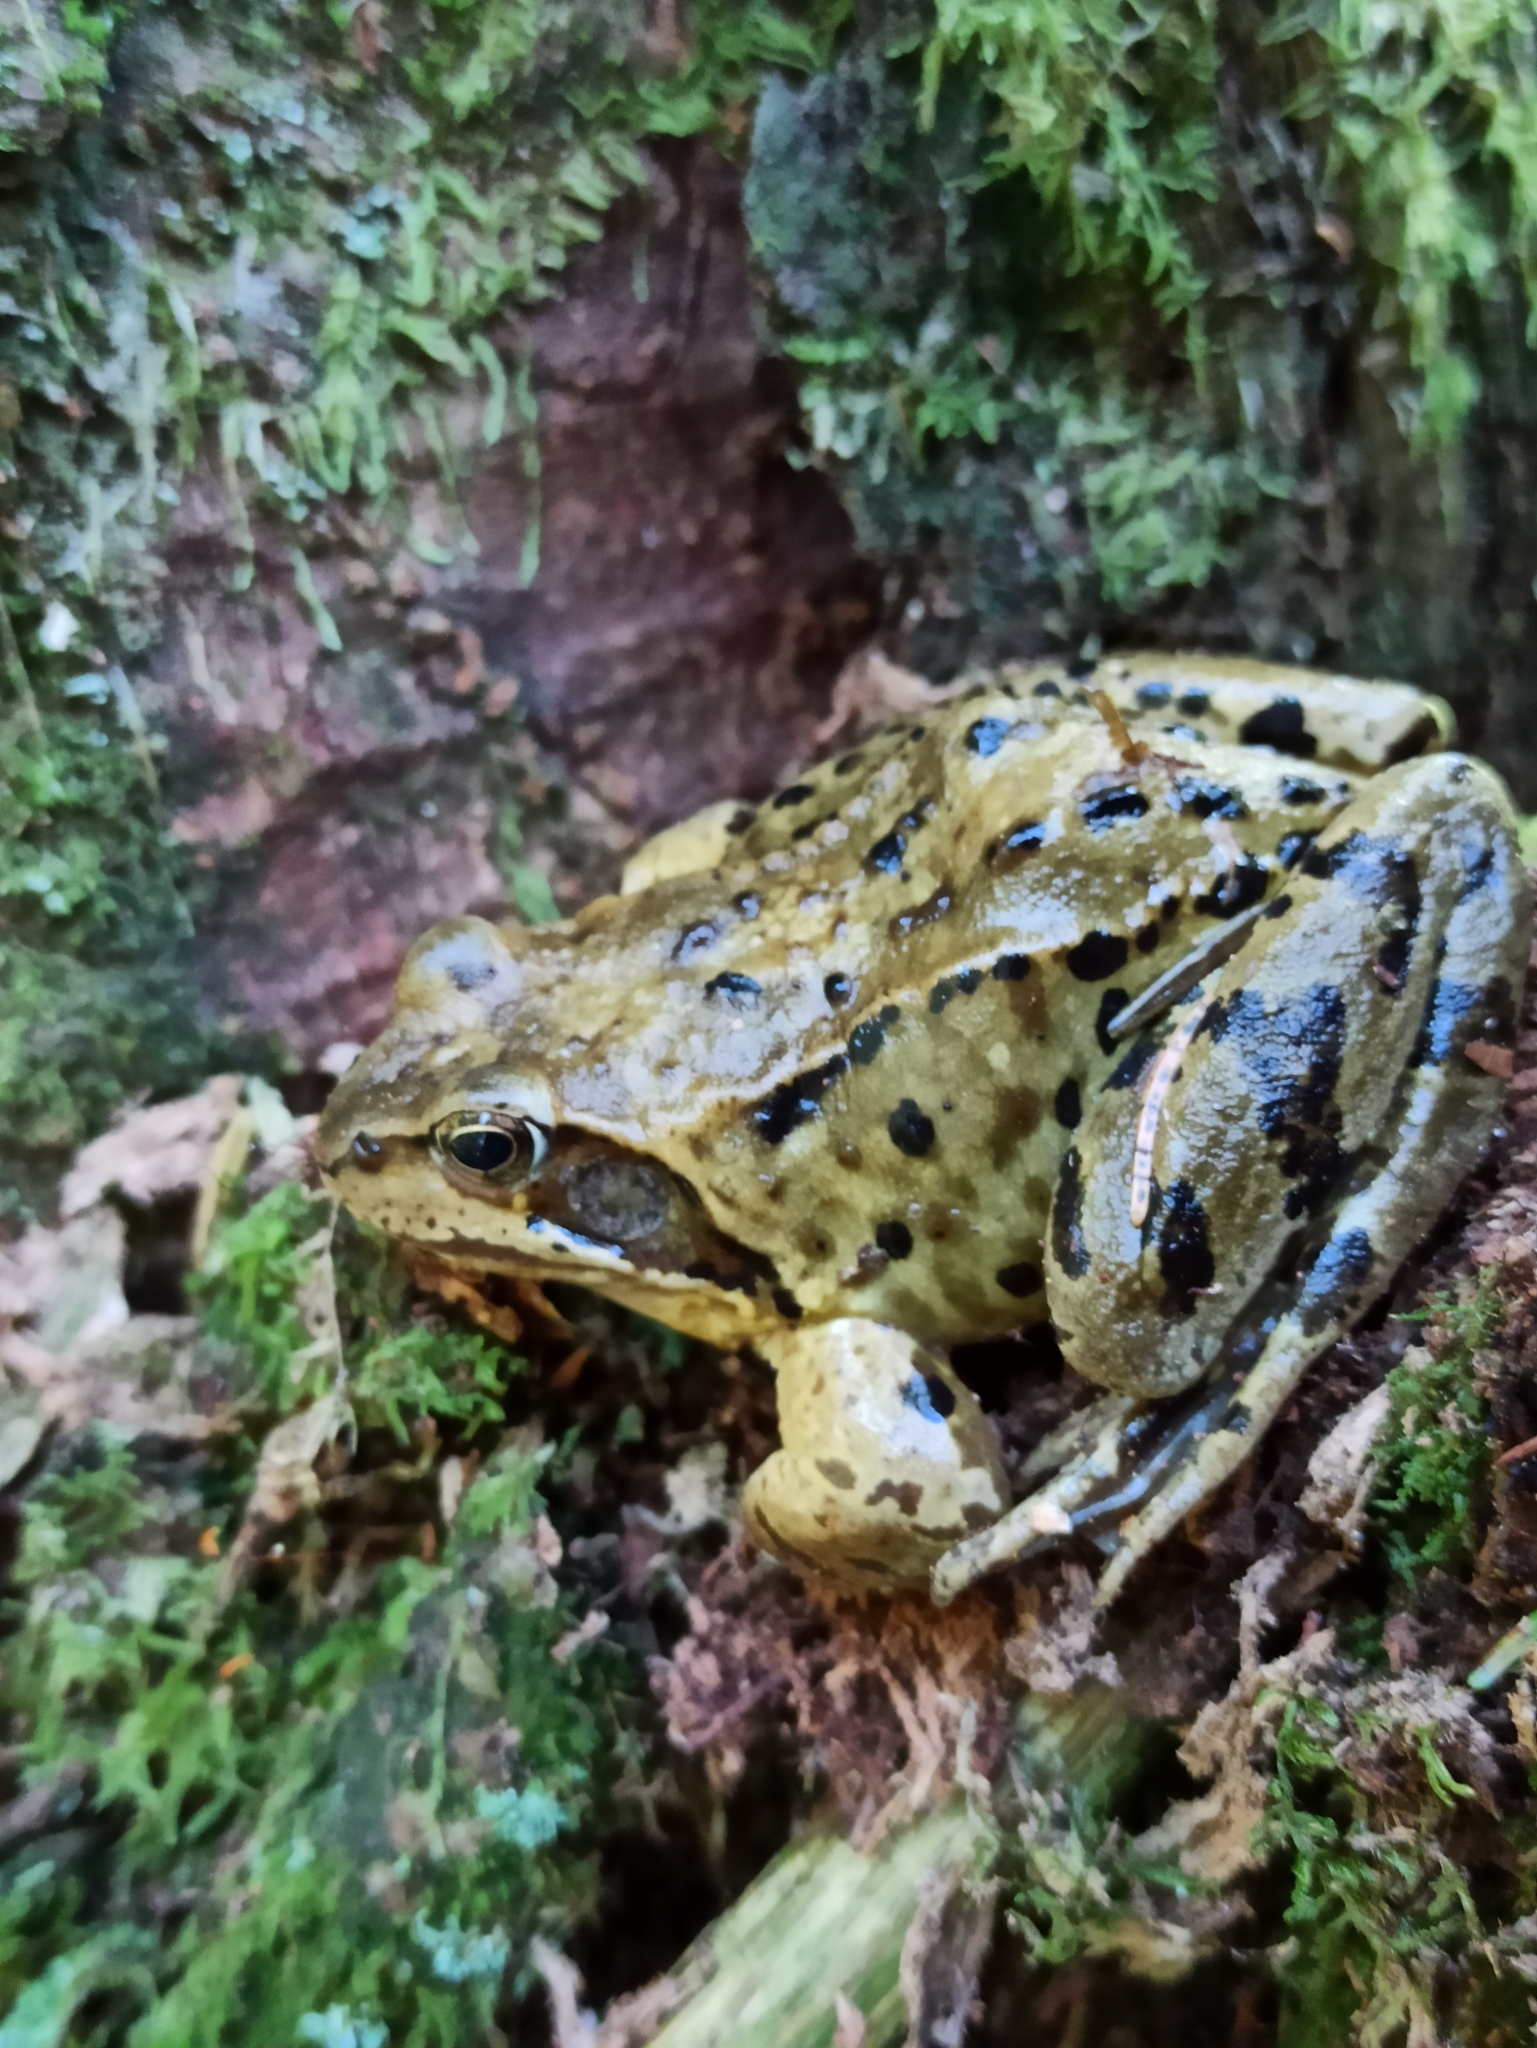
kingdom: Animalia
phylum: Chordata
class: Amphibia
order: Anura
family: Ranidae
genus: Rana
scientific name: Rana temporaria
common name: Common frog
